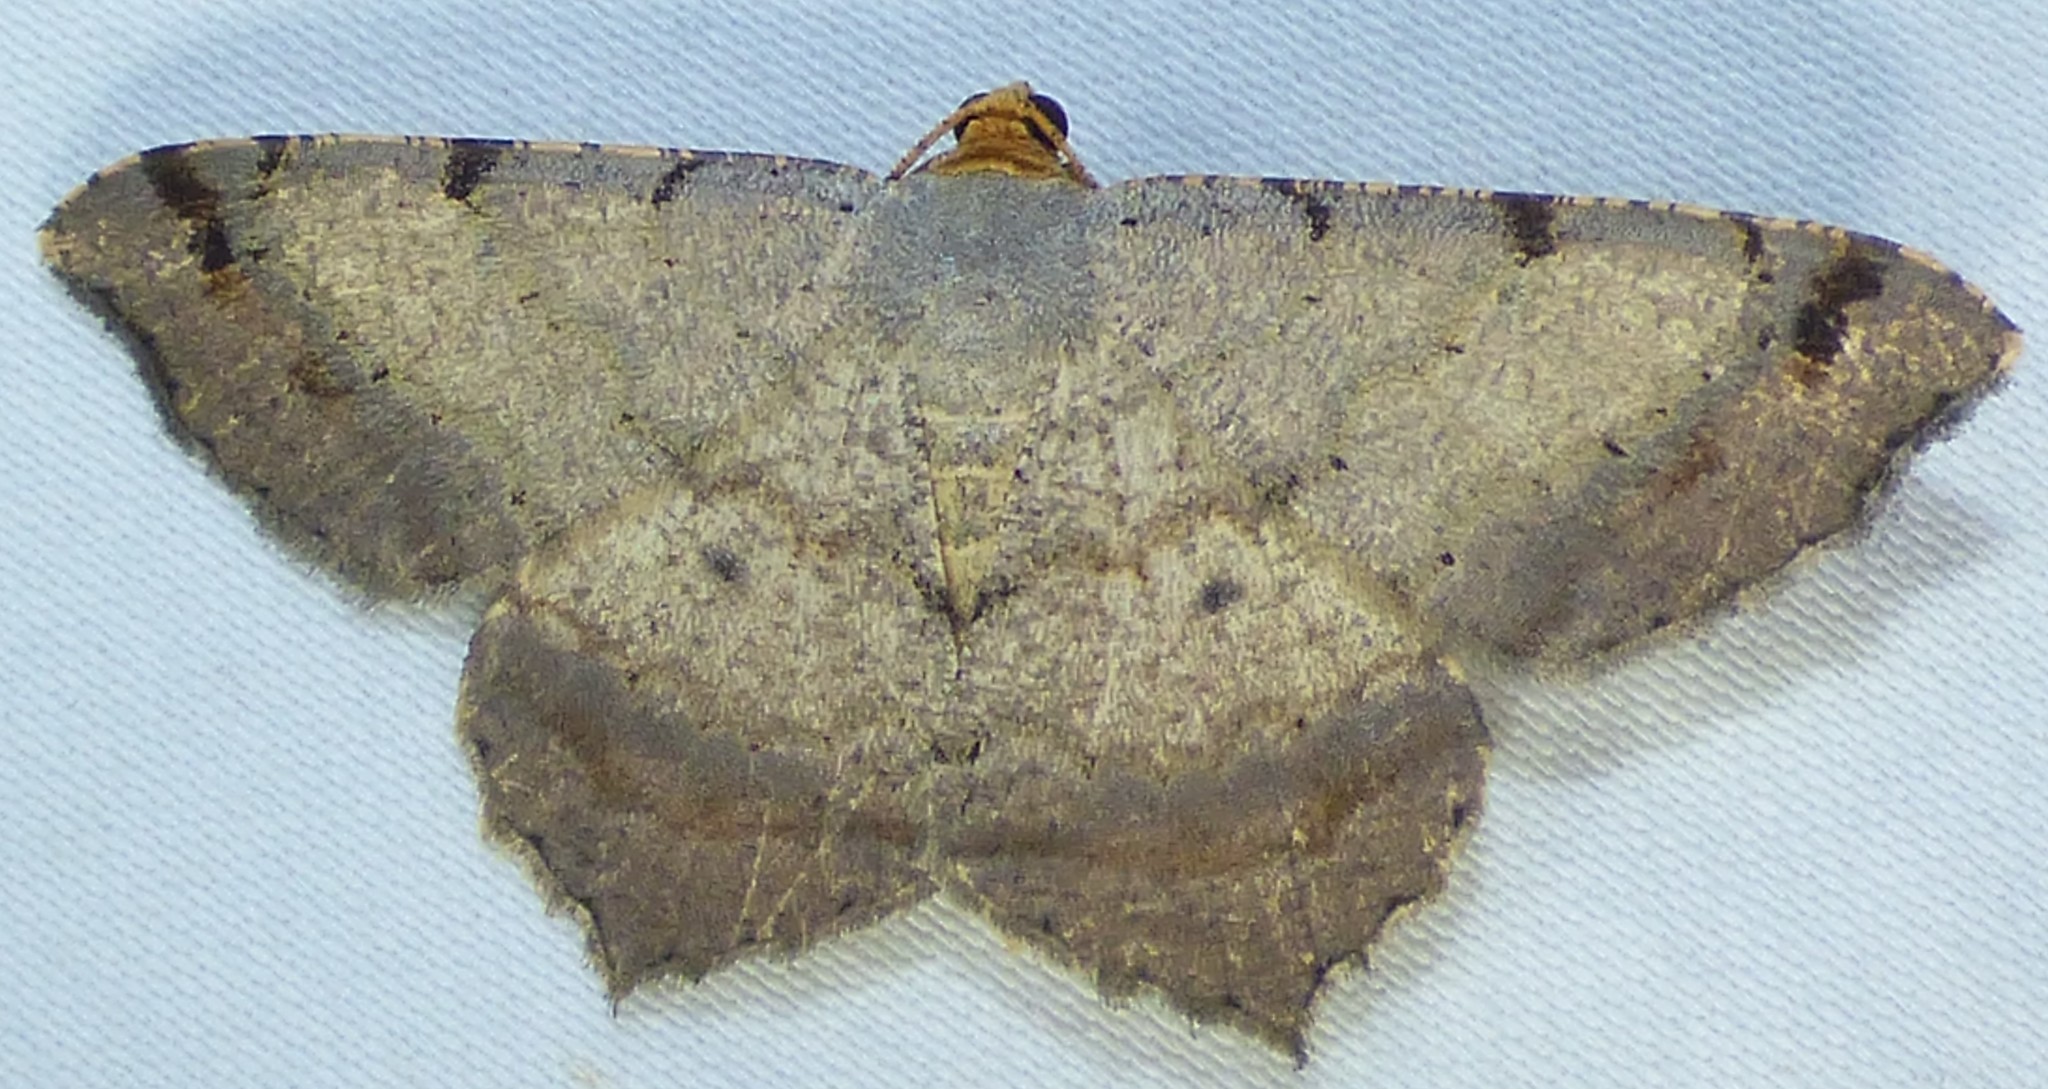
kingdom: Animalia
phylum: Arthropoda
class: Insecta
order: Lepidoptera
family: Geometridae
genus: Macaria
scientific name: Macaria bicolorata
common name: Dingy angle
